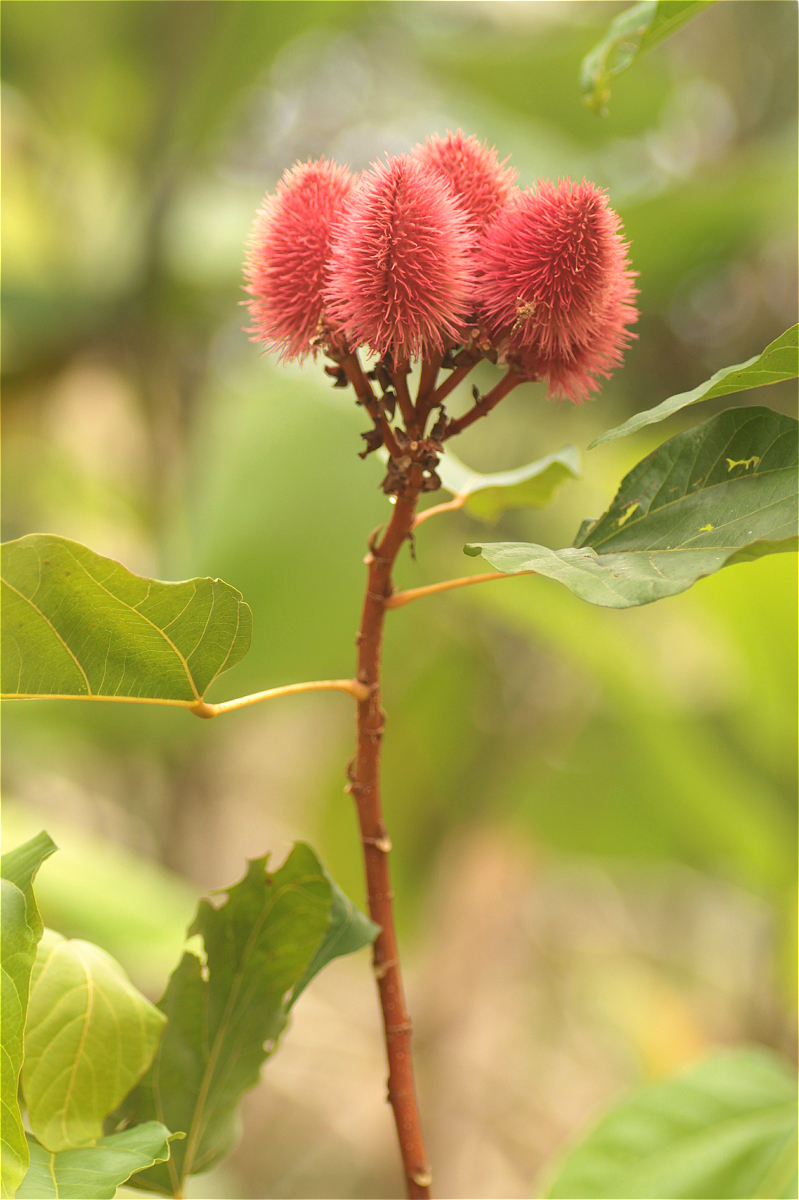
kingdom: Plantae
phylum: Tracheophyta
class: Magnoliopsida
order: Malvales
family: Bixaceae
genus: Bixa
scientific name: Bixa orellana
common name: Lipsticktree
